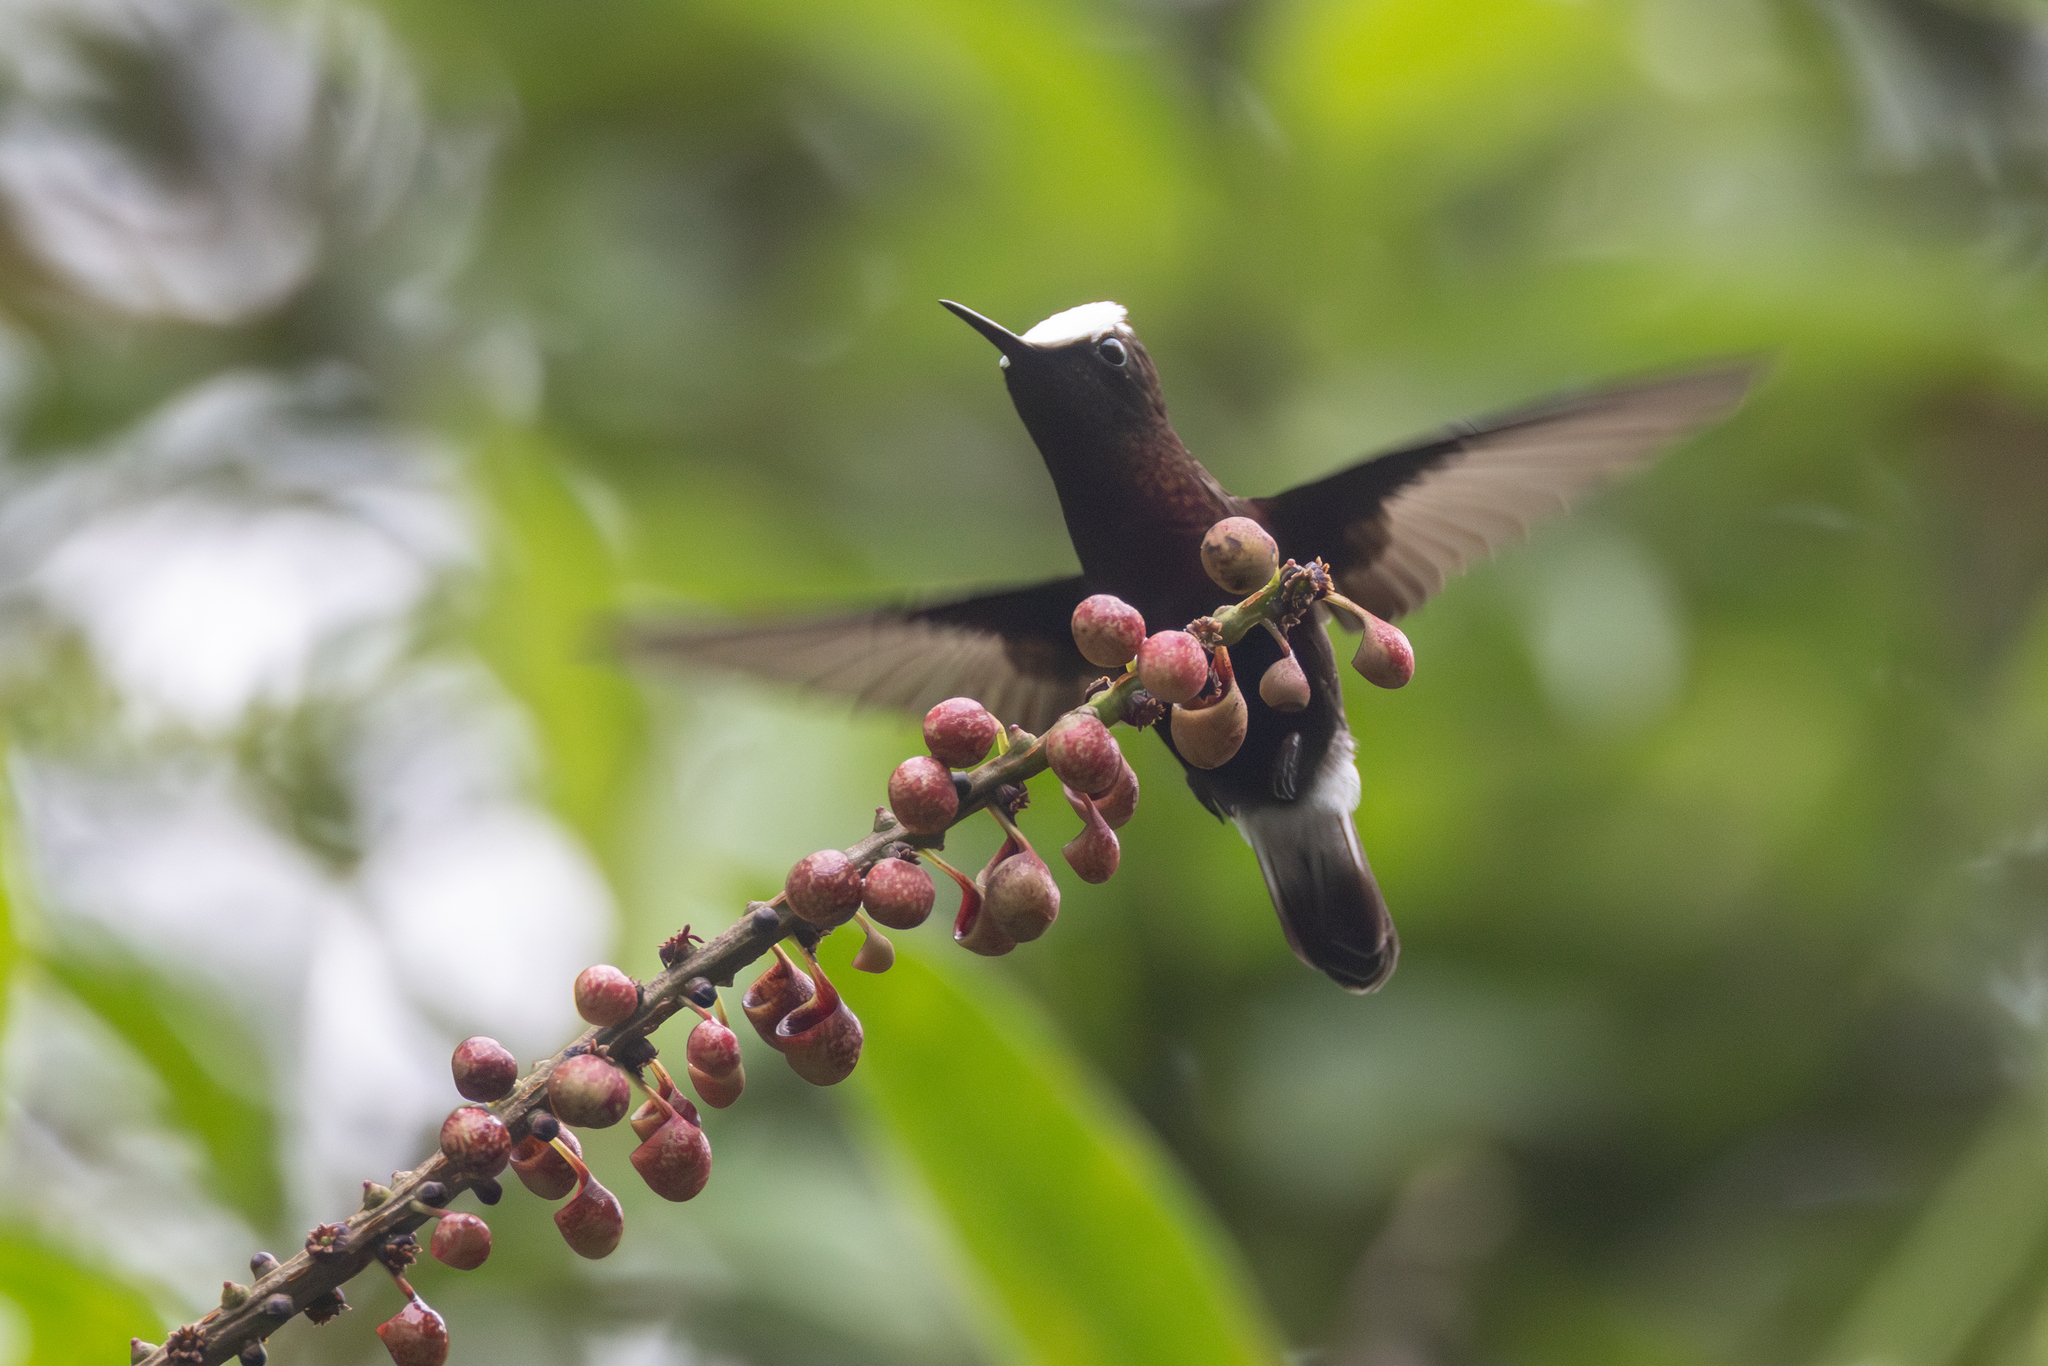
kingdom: Animalia
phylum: Chordata
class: Aves
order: Apodiformes
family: Trochilidae
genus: Microchera
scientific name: Microchera albocoronata
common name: Snowcap
